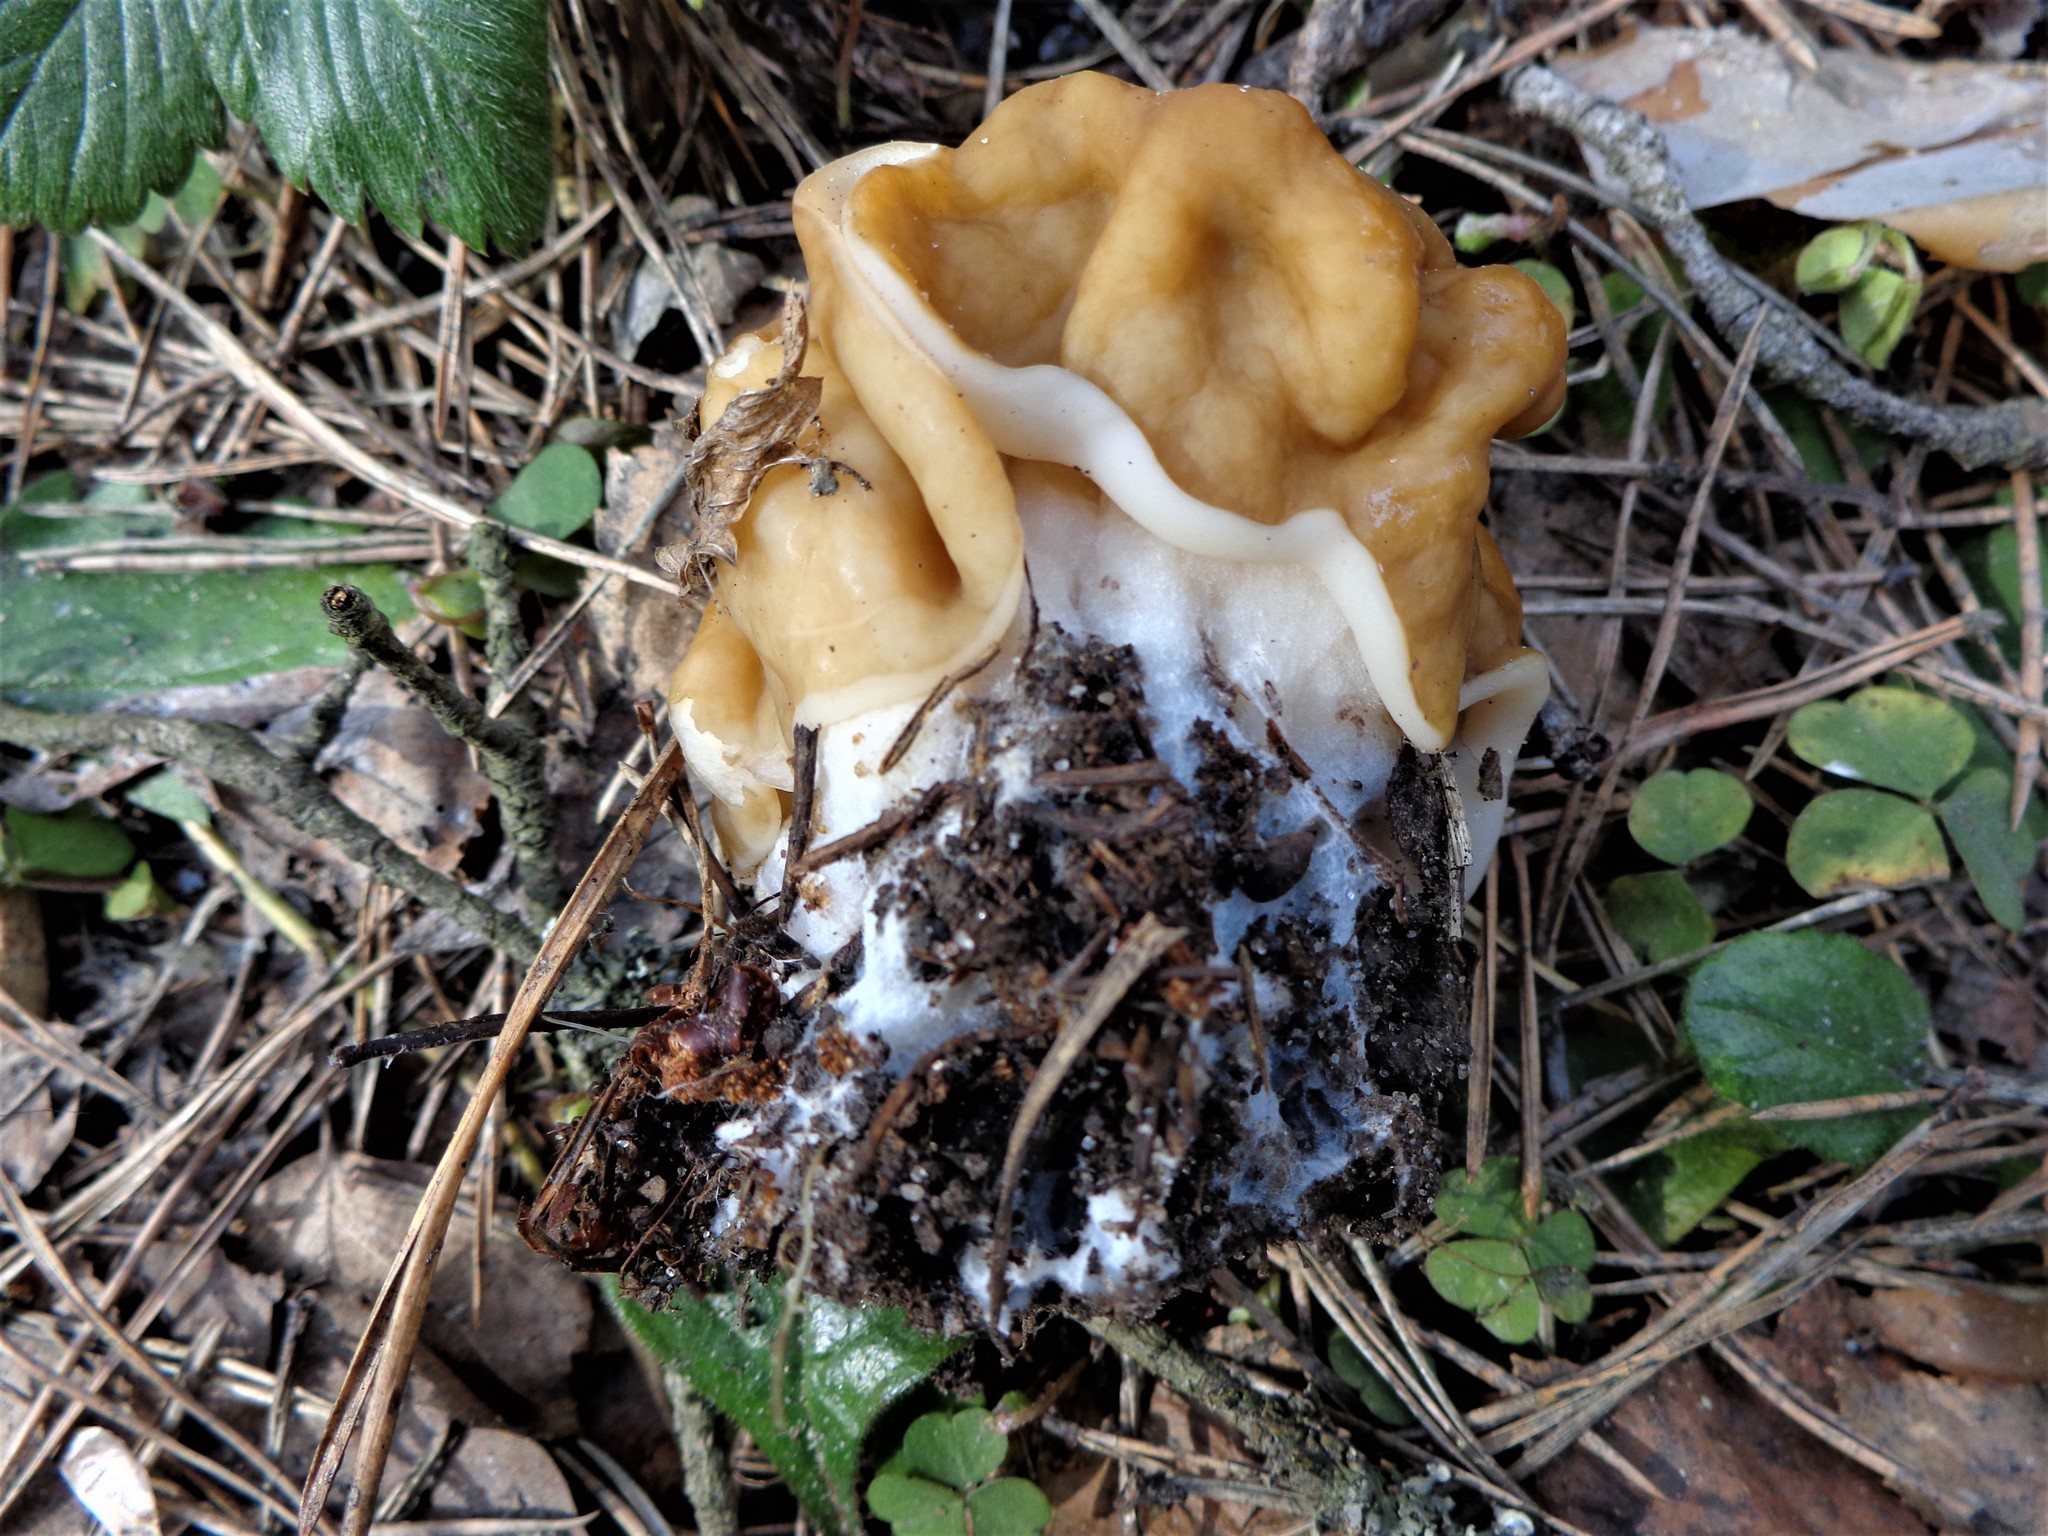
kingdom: Fungi
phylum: Ascomycota
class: Pezizomycetes
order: Pezizales
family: Discinaceae
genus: Gyromitra
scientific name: Gyromitra gigas
